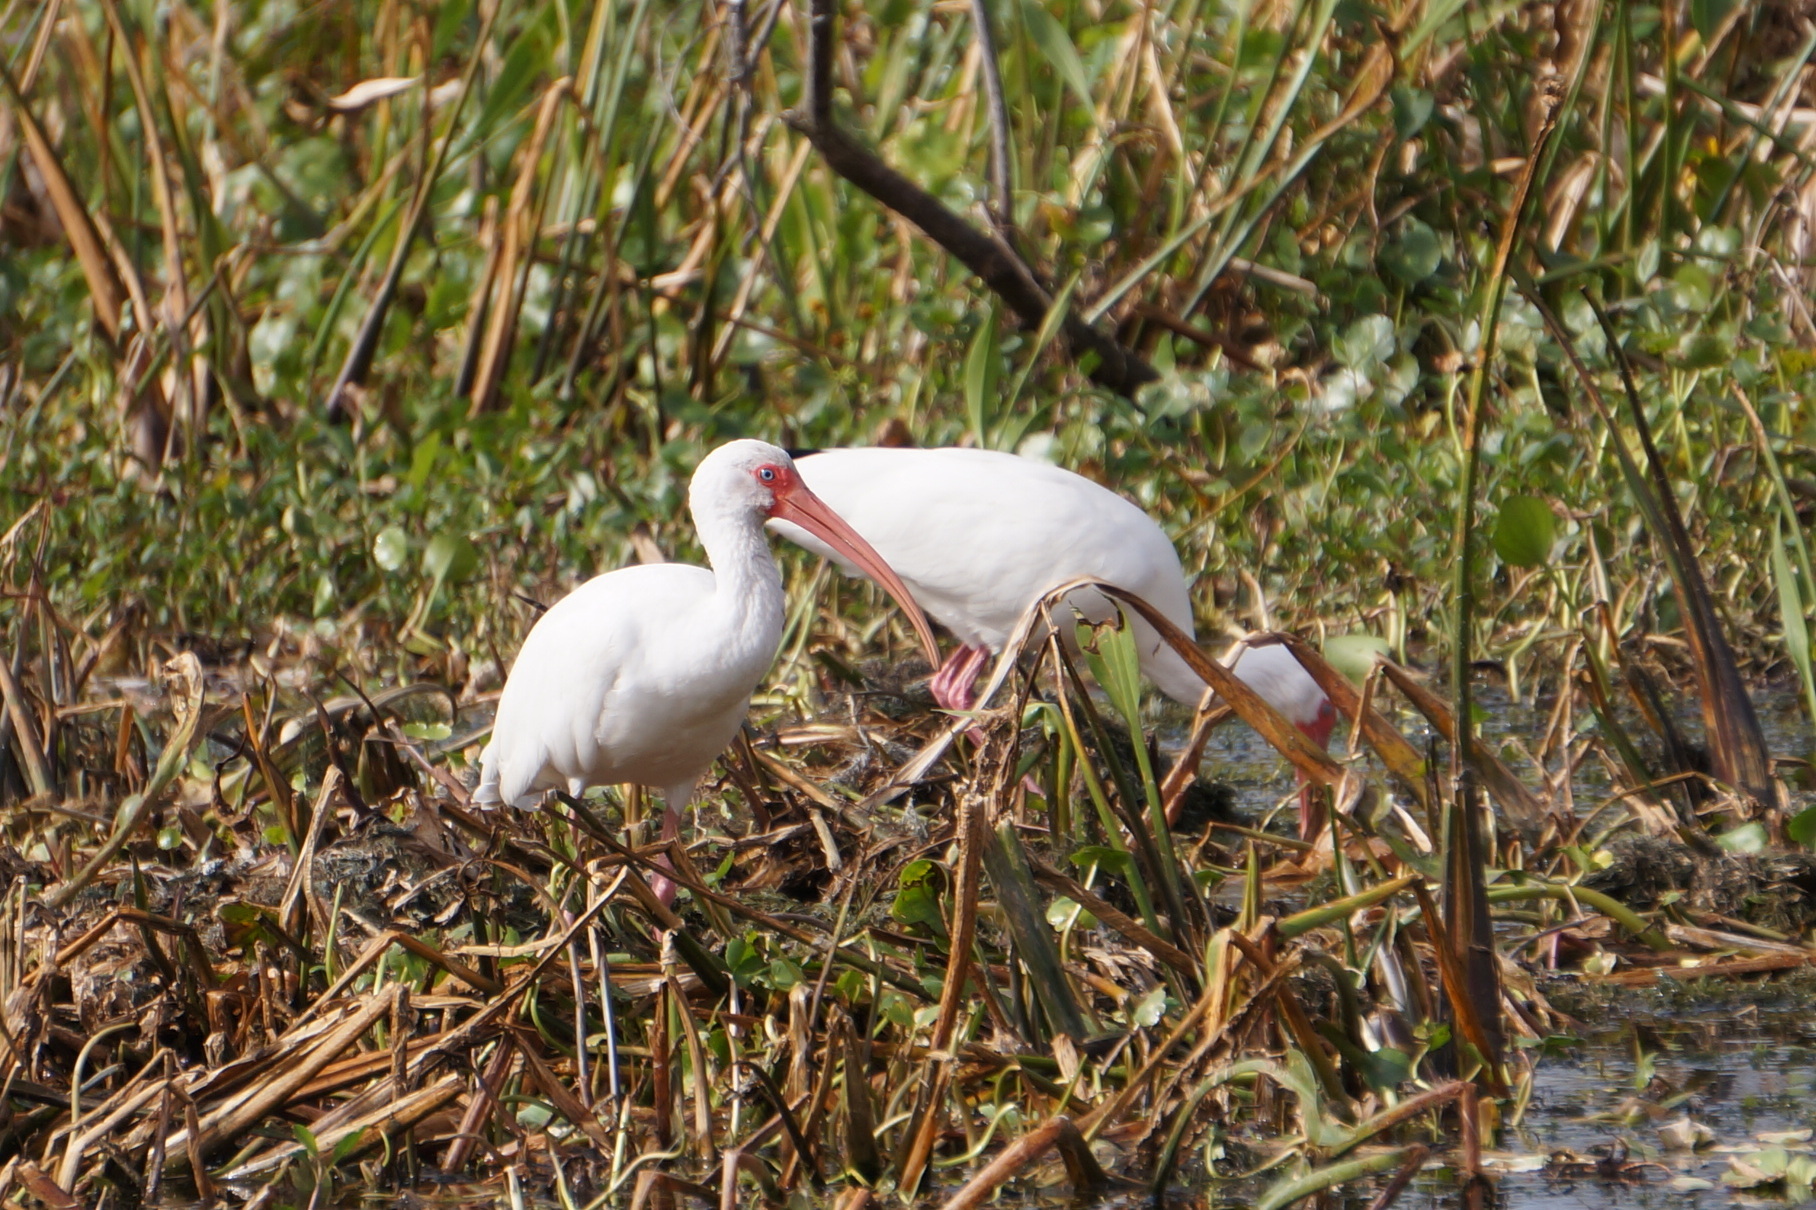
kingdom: Animalia
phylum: Chordata
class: Aves
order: Pelecaniformes
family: Threskiornithidae
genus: Eudocimus
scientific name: Eudocimus albus
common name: White ibis
